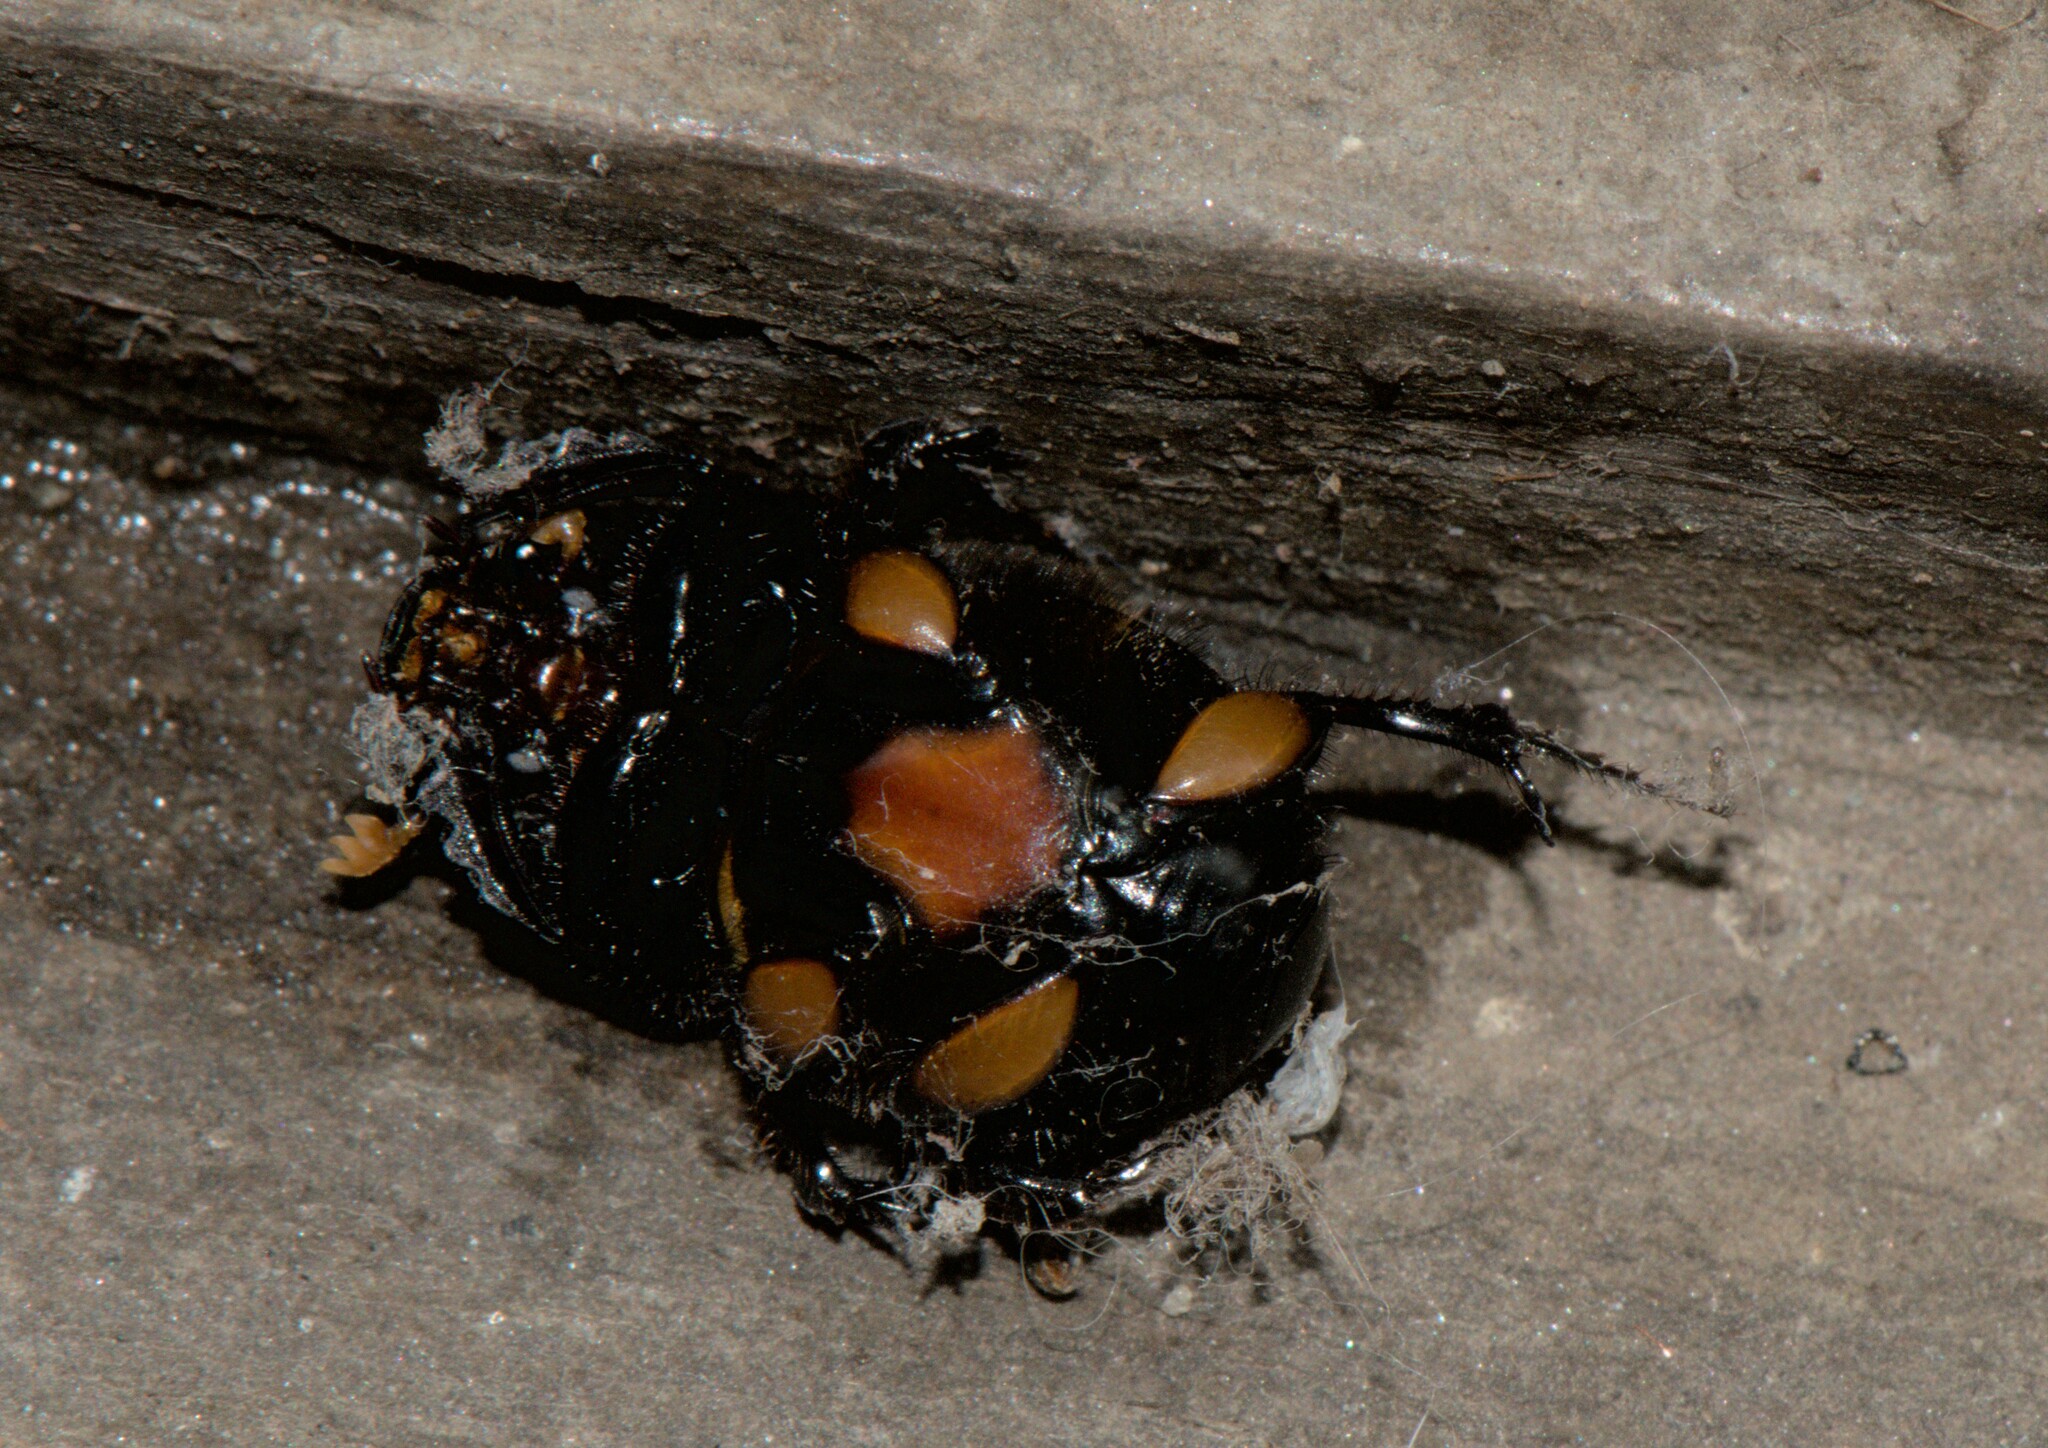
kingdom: Animalia
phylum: Arthropoda
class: Insecta
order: Coleoptera
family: Scarabaeidae
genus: Onthophagus
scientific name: Onthophagus rubricollis
